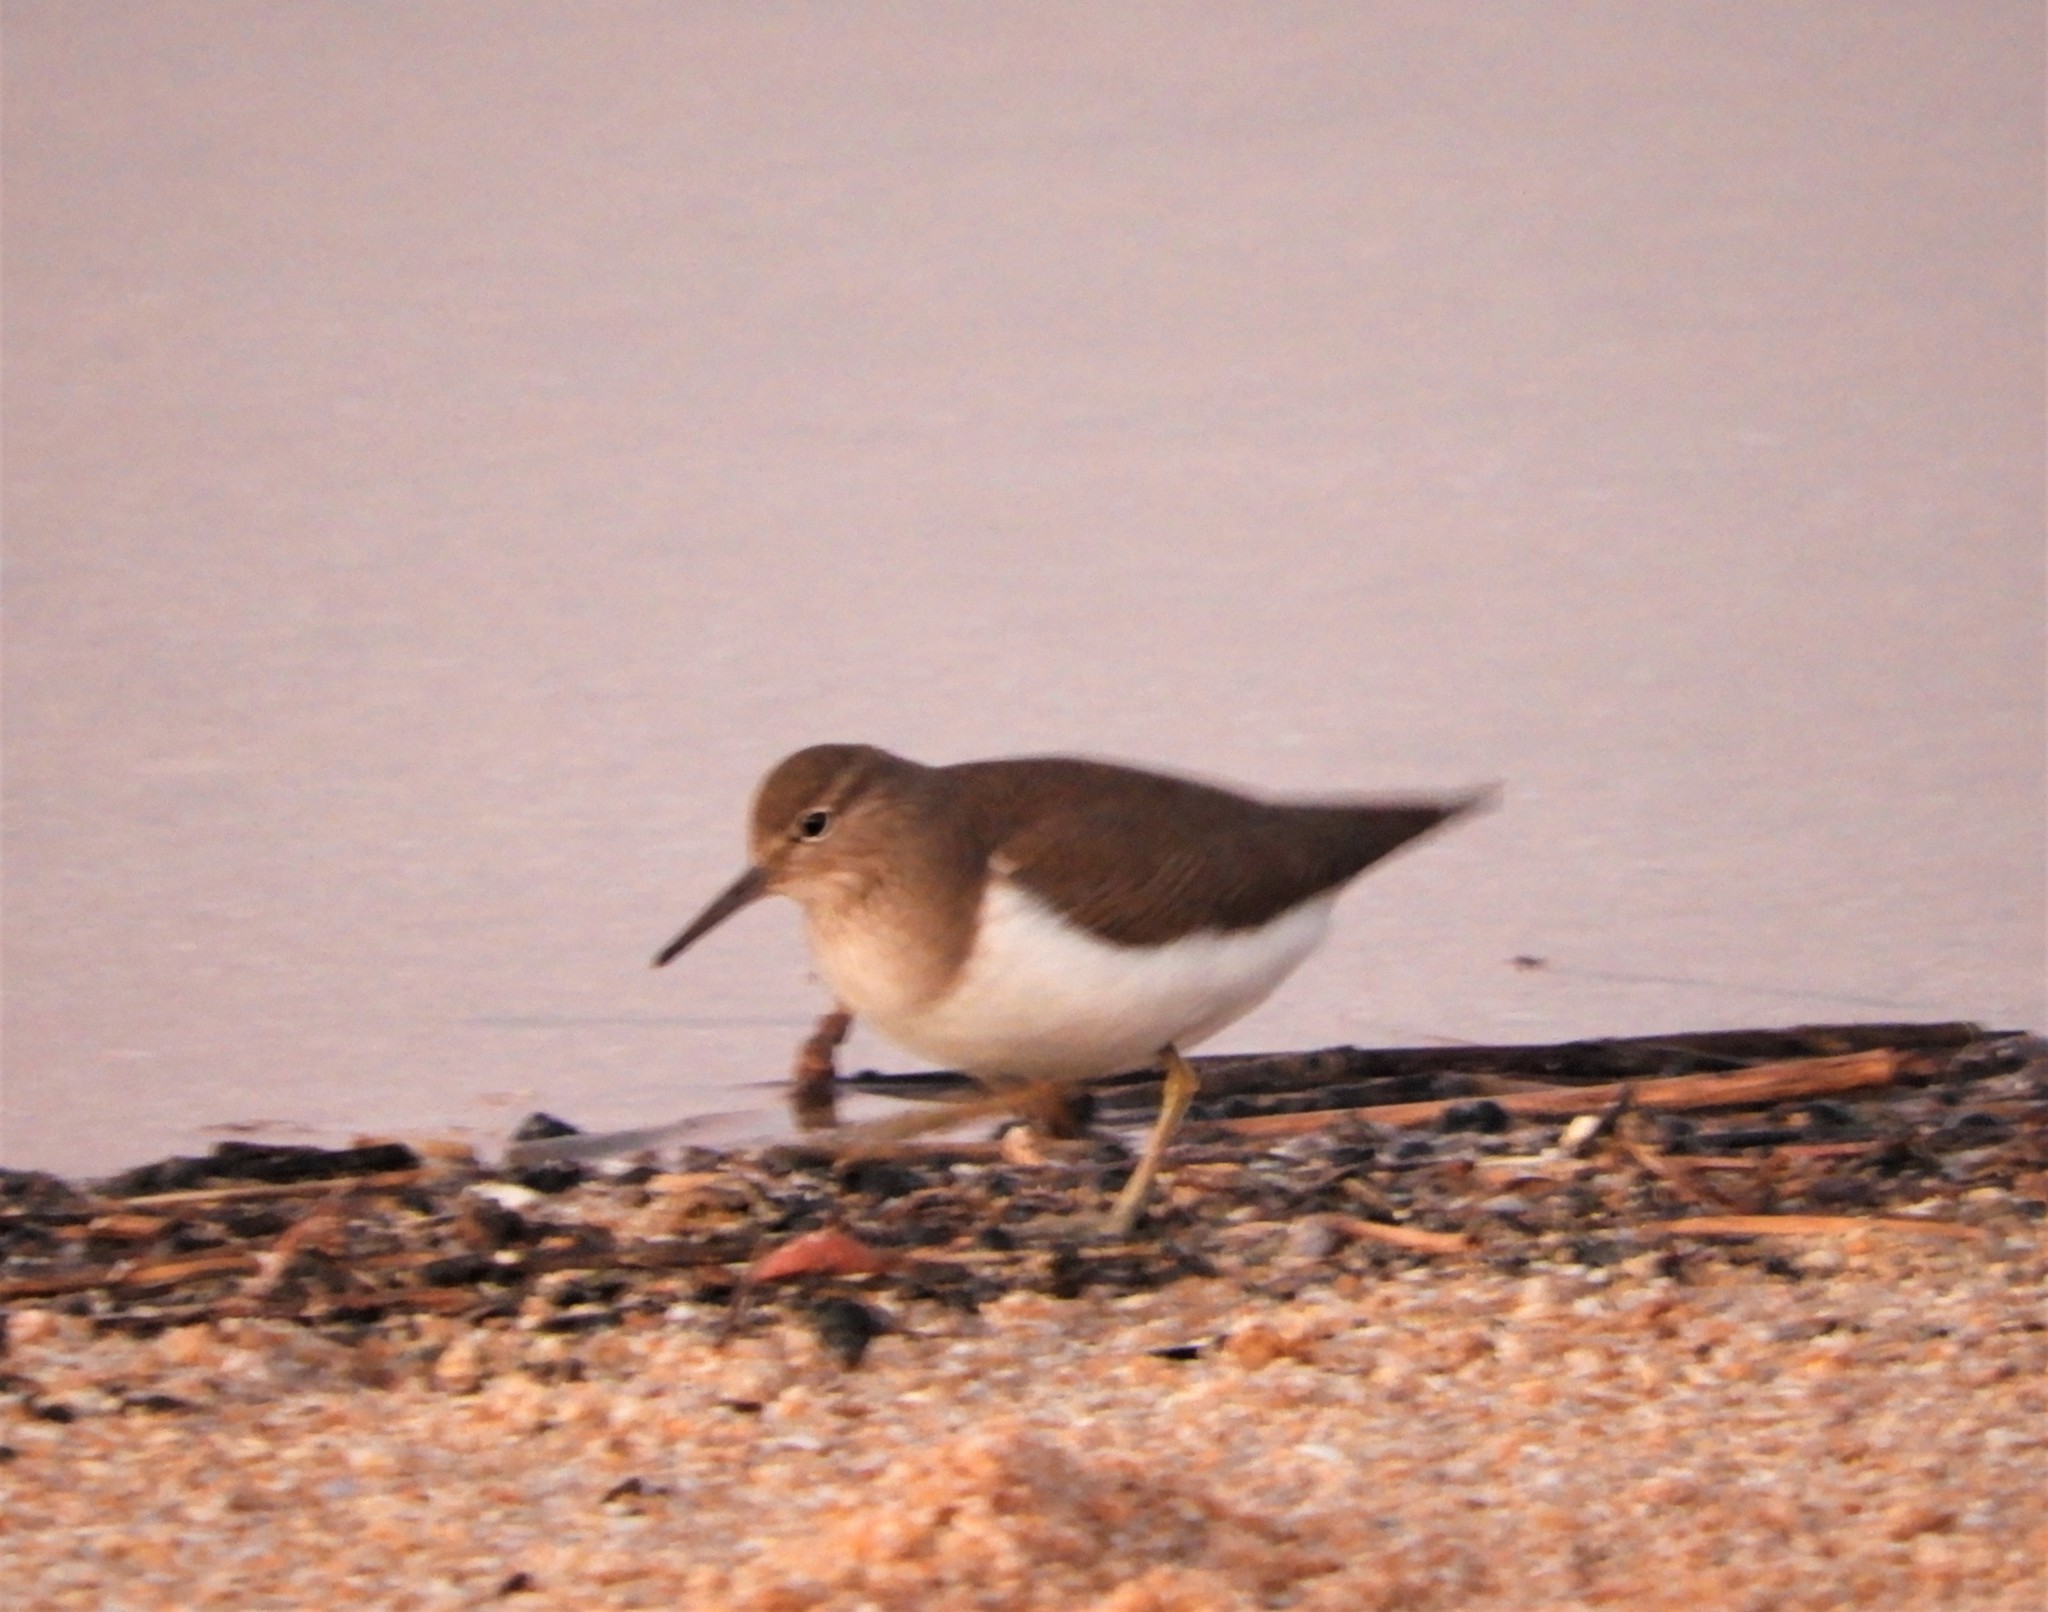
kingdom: Animalia
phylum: Chordata
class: Aves
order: Charadriiformes
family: Scolopacidae
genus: Actitis
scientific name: Actitis hypoleucos
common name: Common sandpiper
